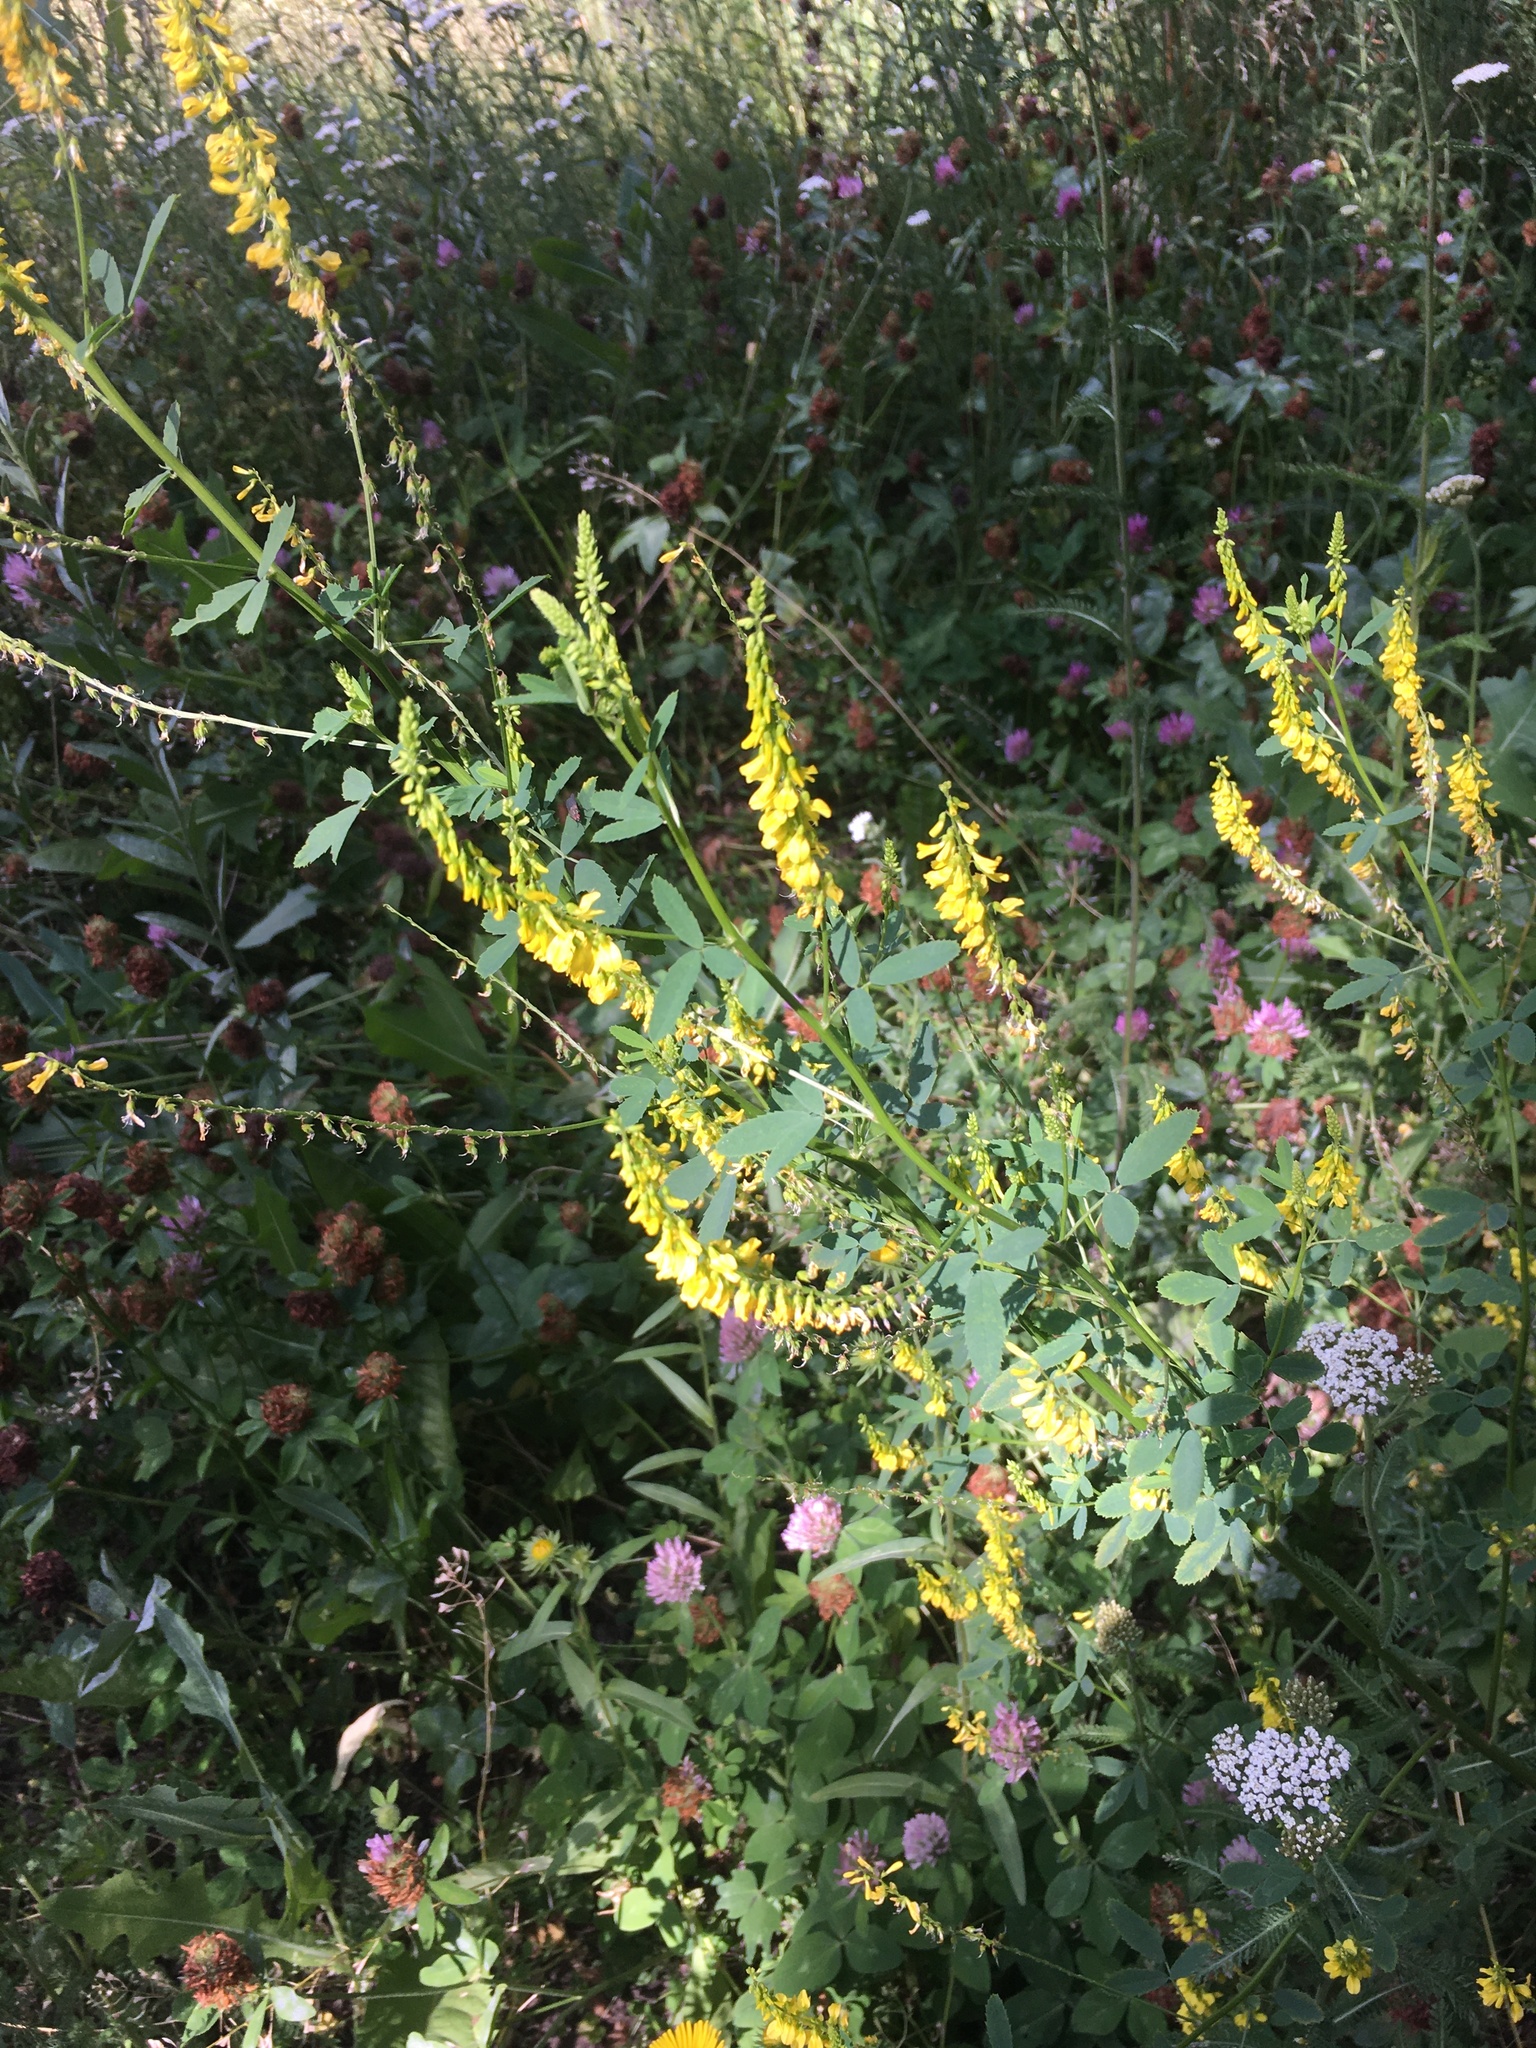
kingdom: Plantae
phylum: Tracheophyta
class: Magnoliopsida
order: Fabales
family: Fabaceae
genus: Melilotus
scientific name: Melilotus officinalis
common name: Sweetclover
